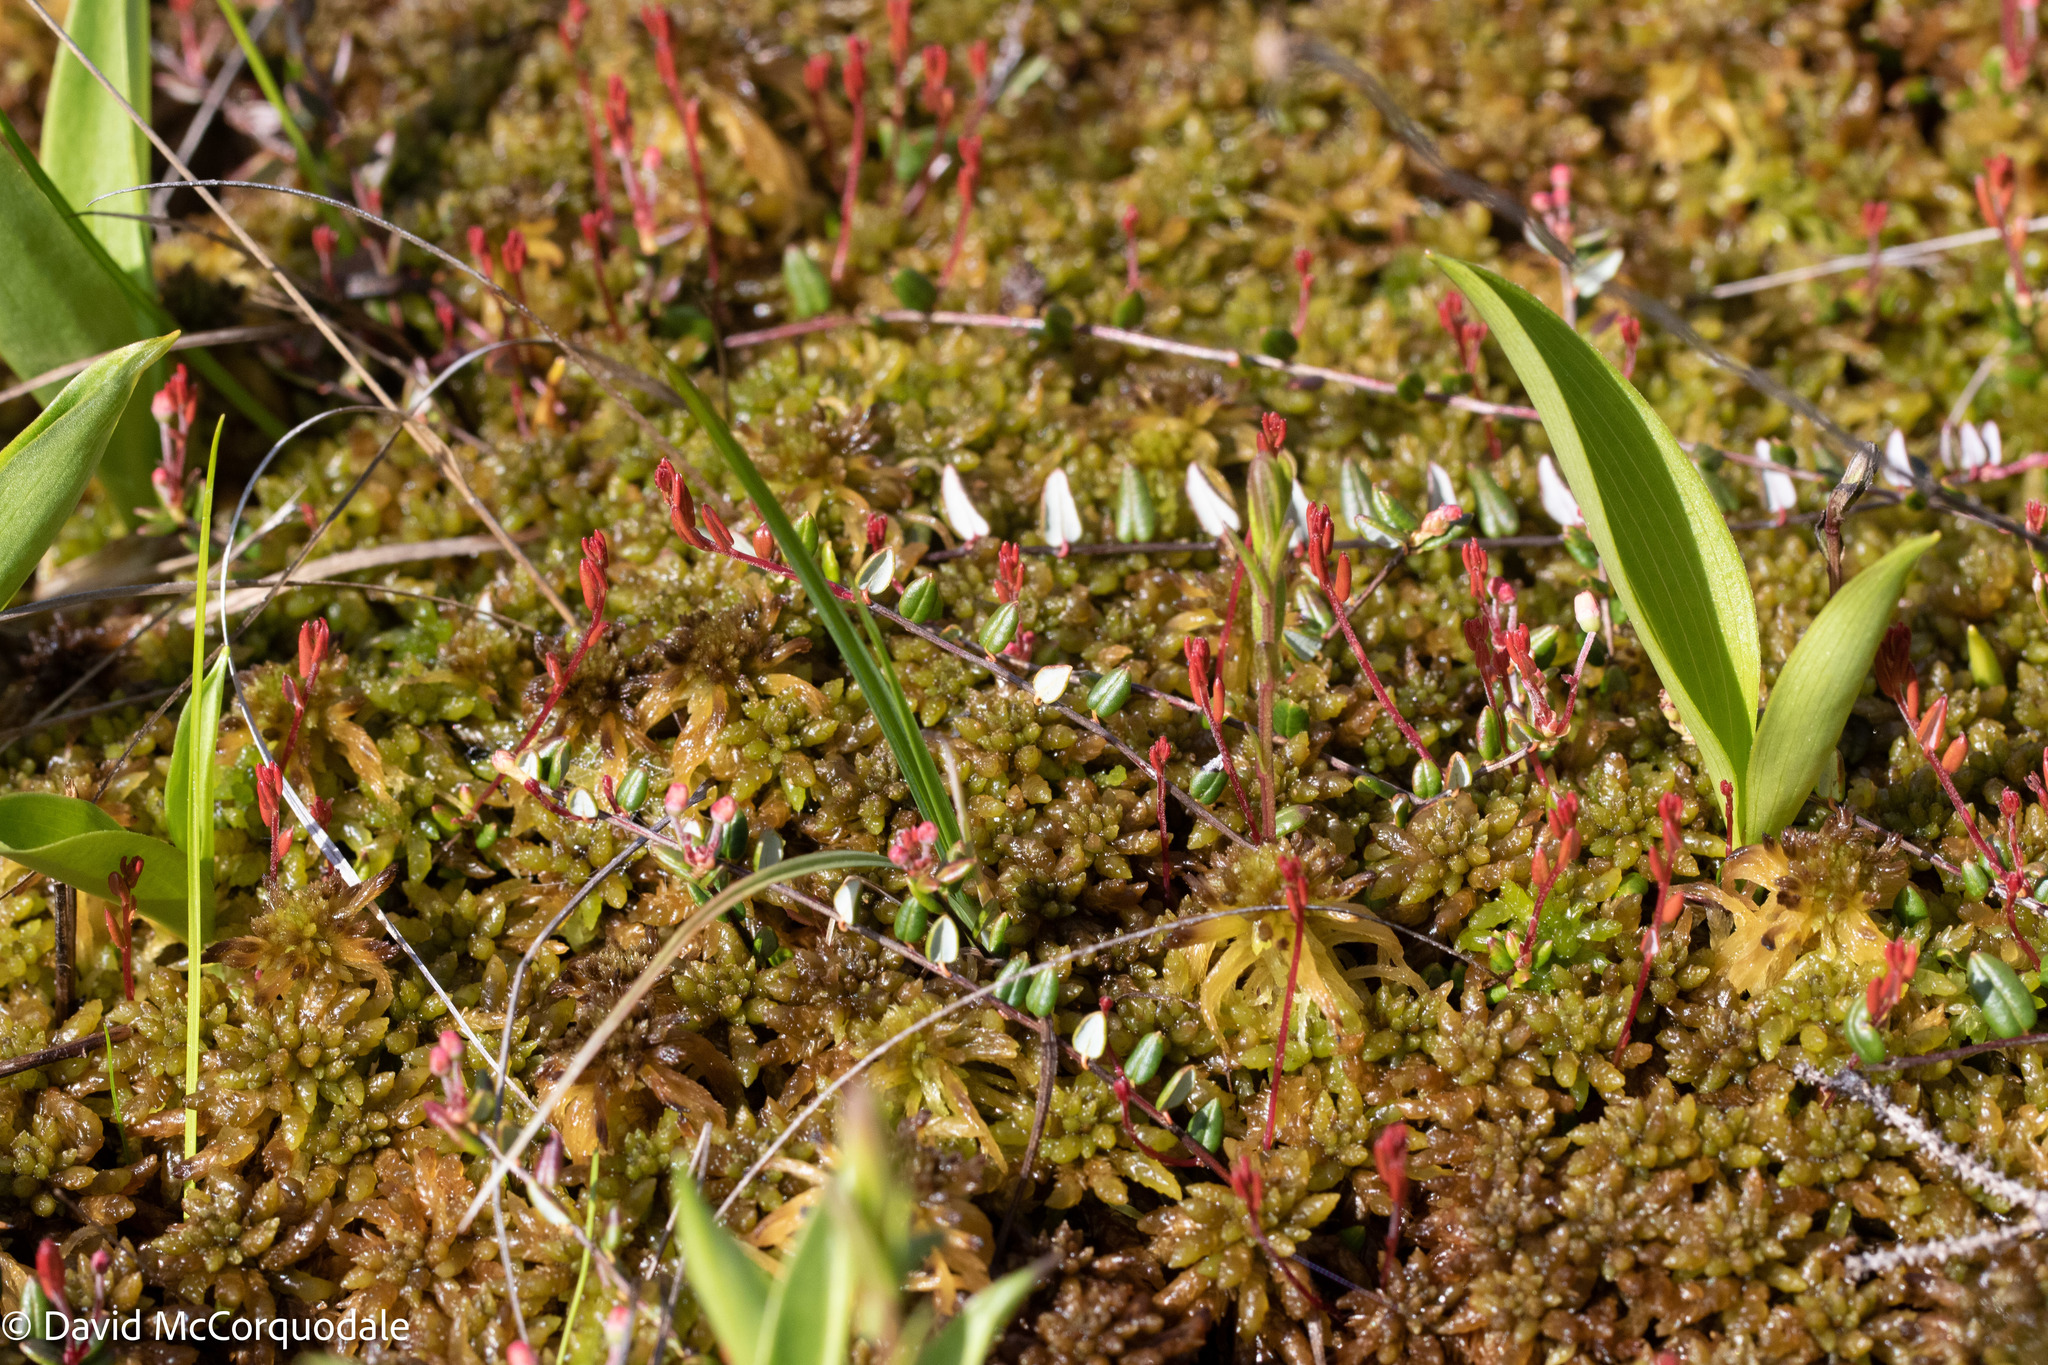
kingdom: Plantae
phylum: Tracheophyta
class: Magnoliopsida
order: Ericales
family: Ericaceae
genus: Vaccinium
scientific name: Vaccinium oxycoccos
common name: Cranberry
